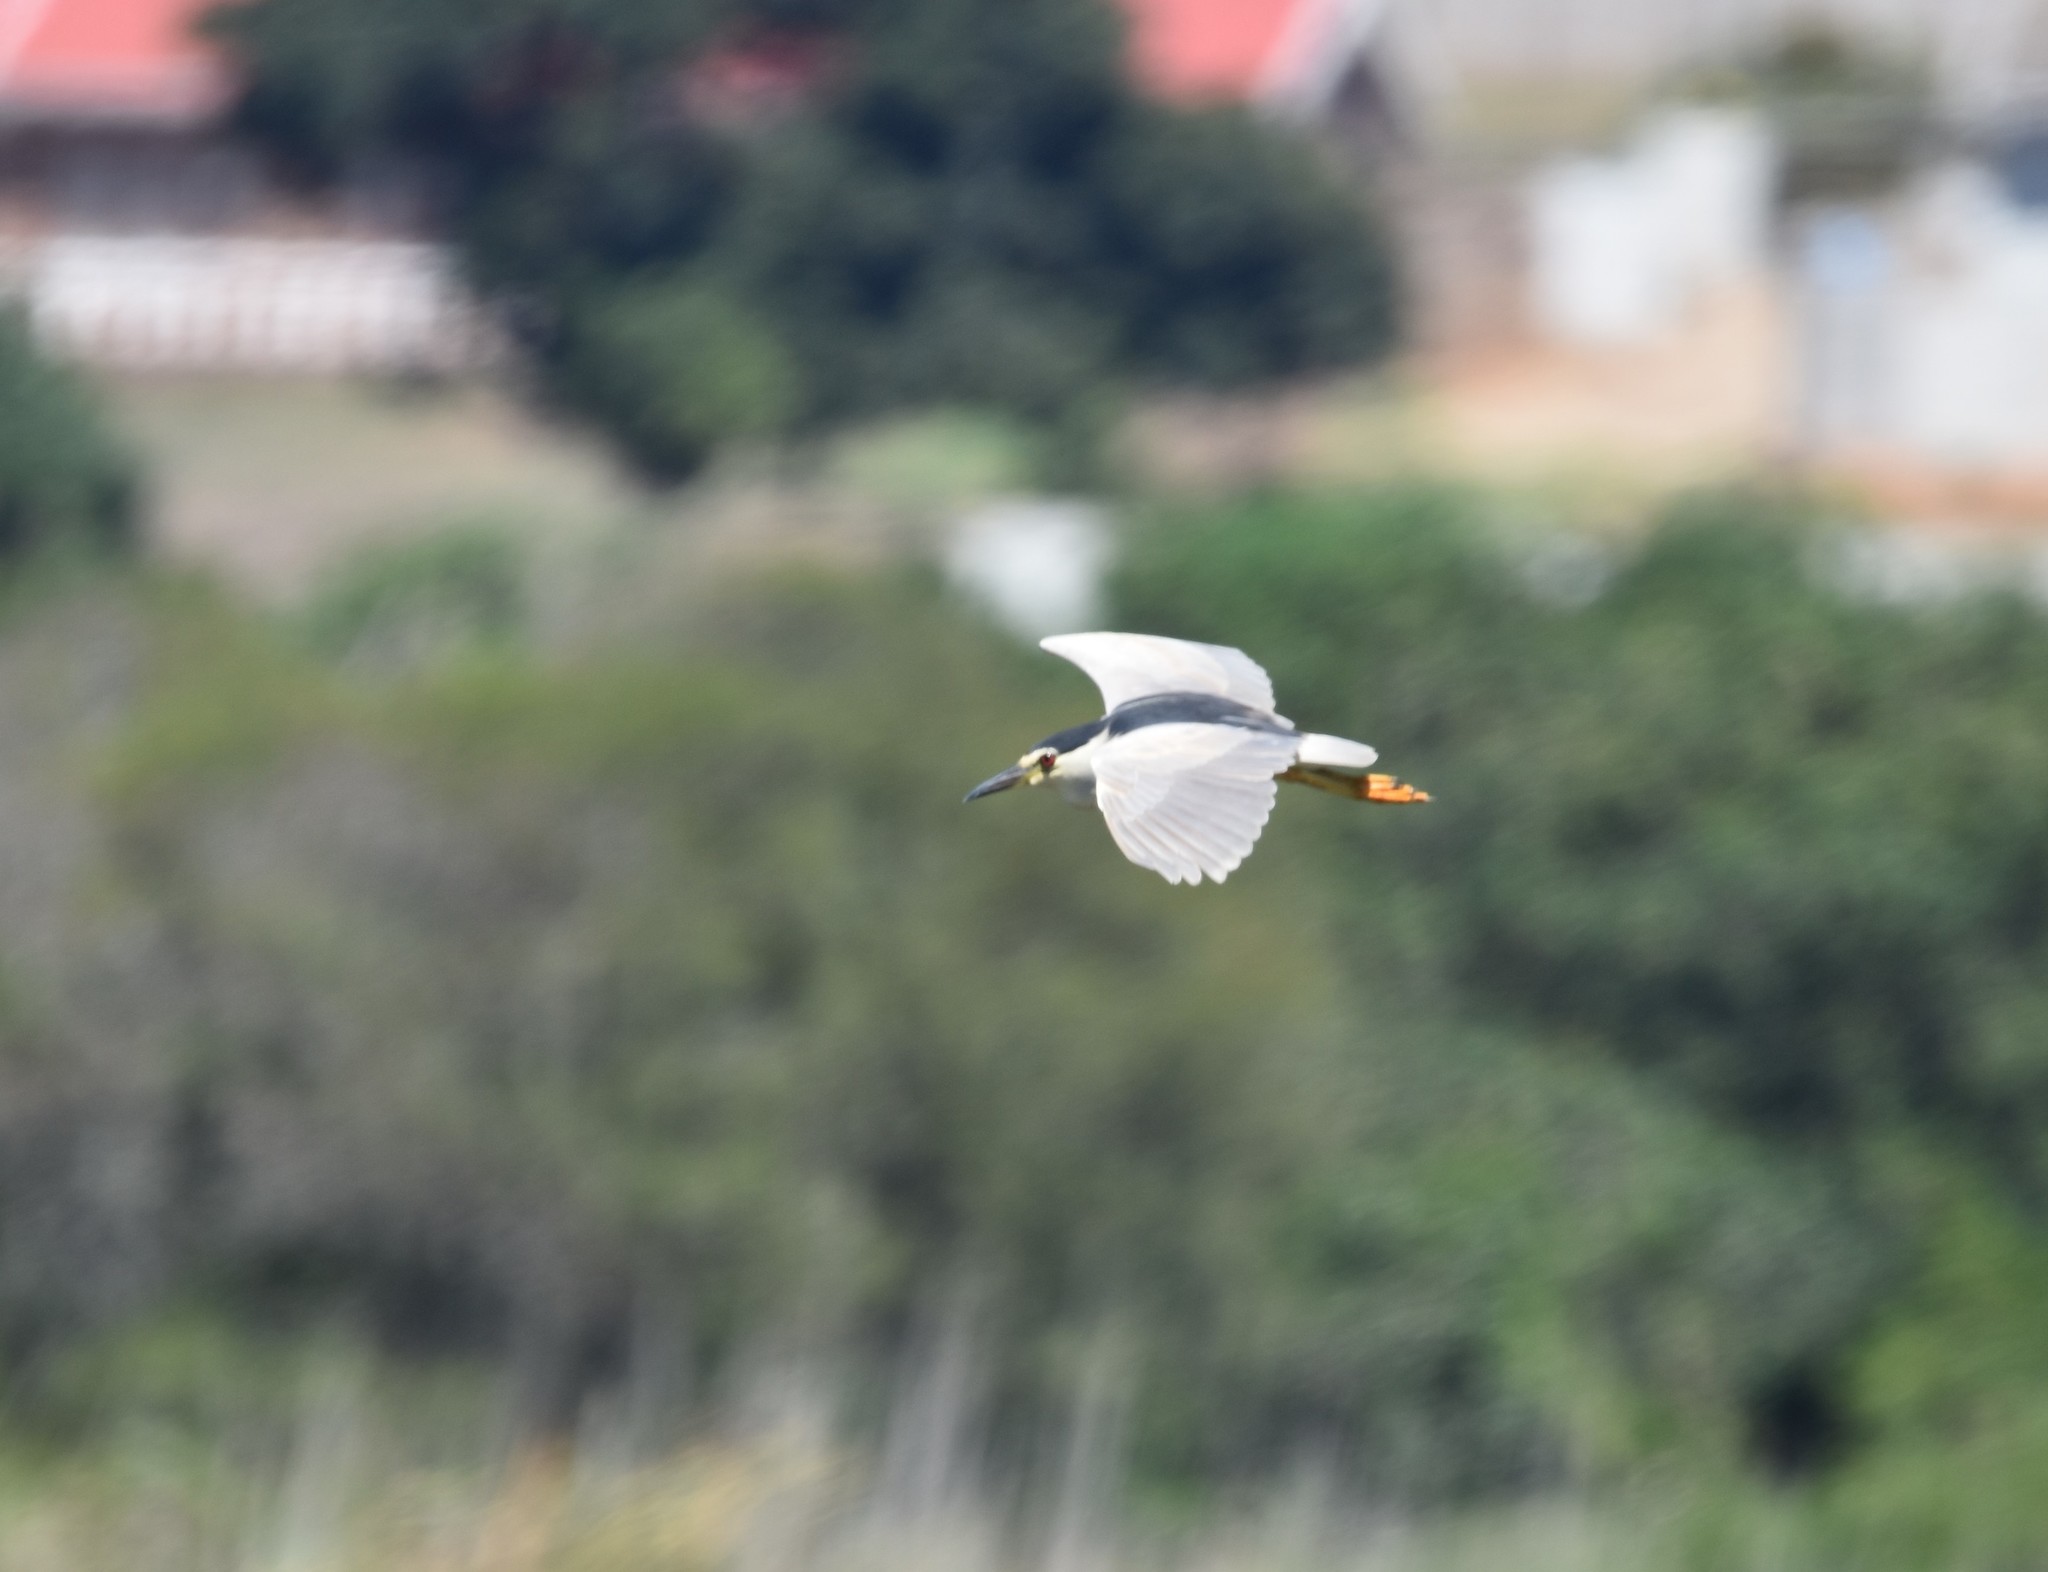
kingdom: Animalia
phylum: Chordata
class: Aves
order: Pelecaniformes
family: Ardeidae
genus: Nycticorax
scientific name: Nycticorax nycticorax
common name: Black-crowned night heron
